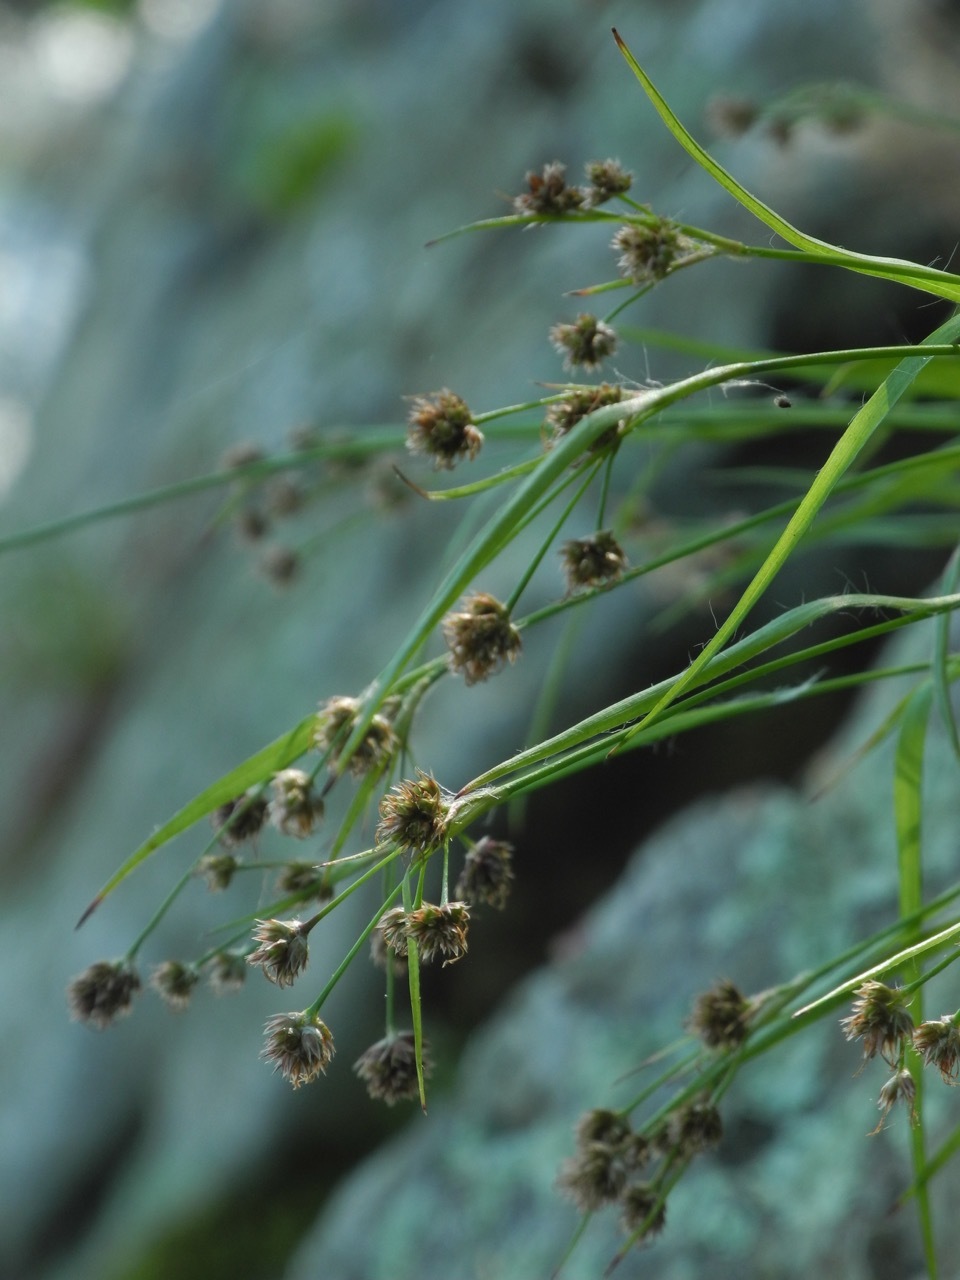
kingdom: Plantae
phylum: Tracheophyta
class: Liliopsida
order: Poales
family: Juncaceae
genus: Luzula
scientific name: Luzula echinata
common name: Hedgehog woodrush
